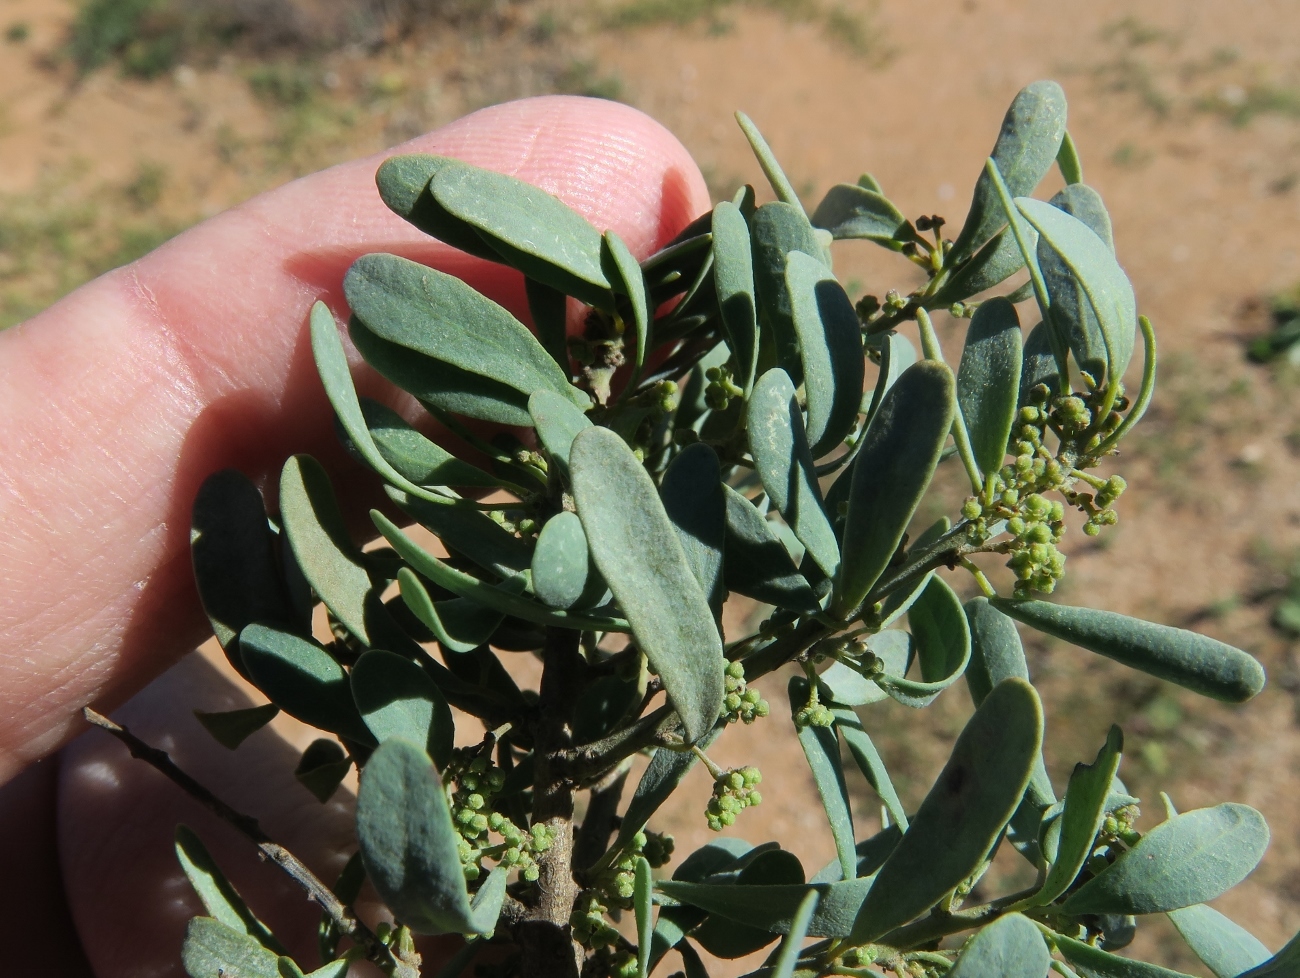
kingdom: Plantae
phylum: Tracheophyta
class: Magnoliopsida
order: Ranunculales
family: Menispermaceae
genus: Antizoma
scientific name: Antizoma miersiana
